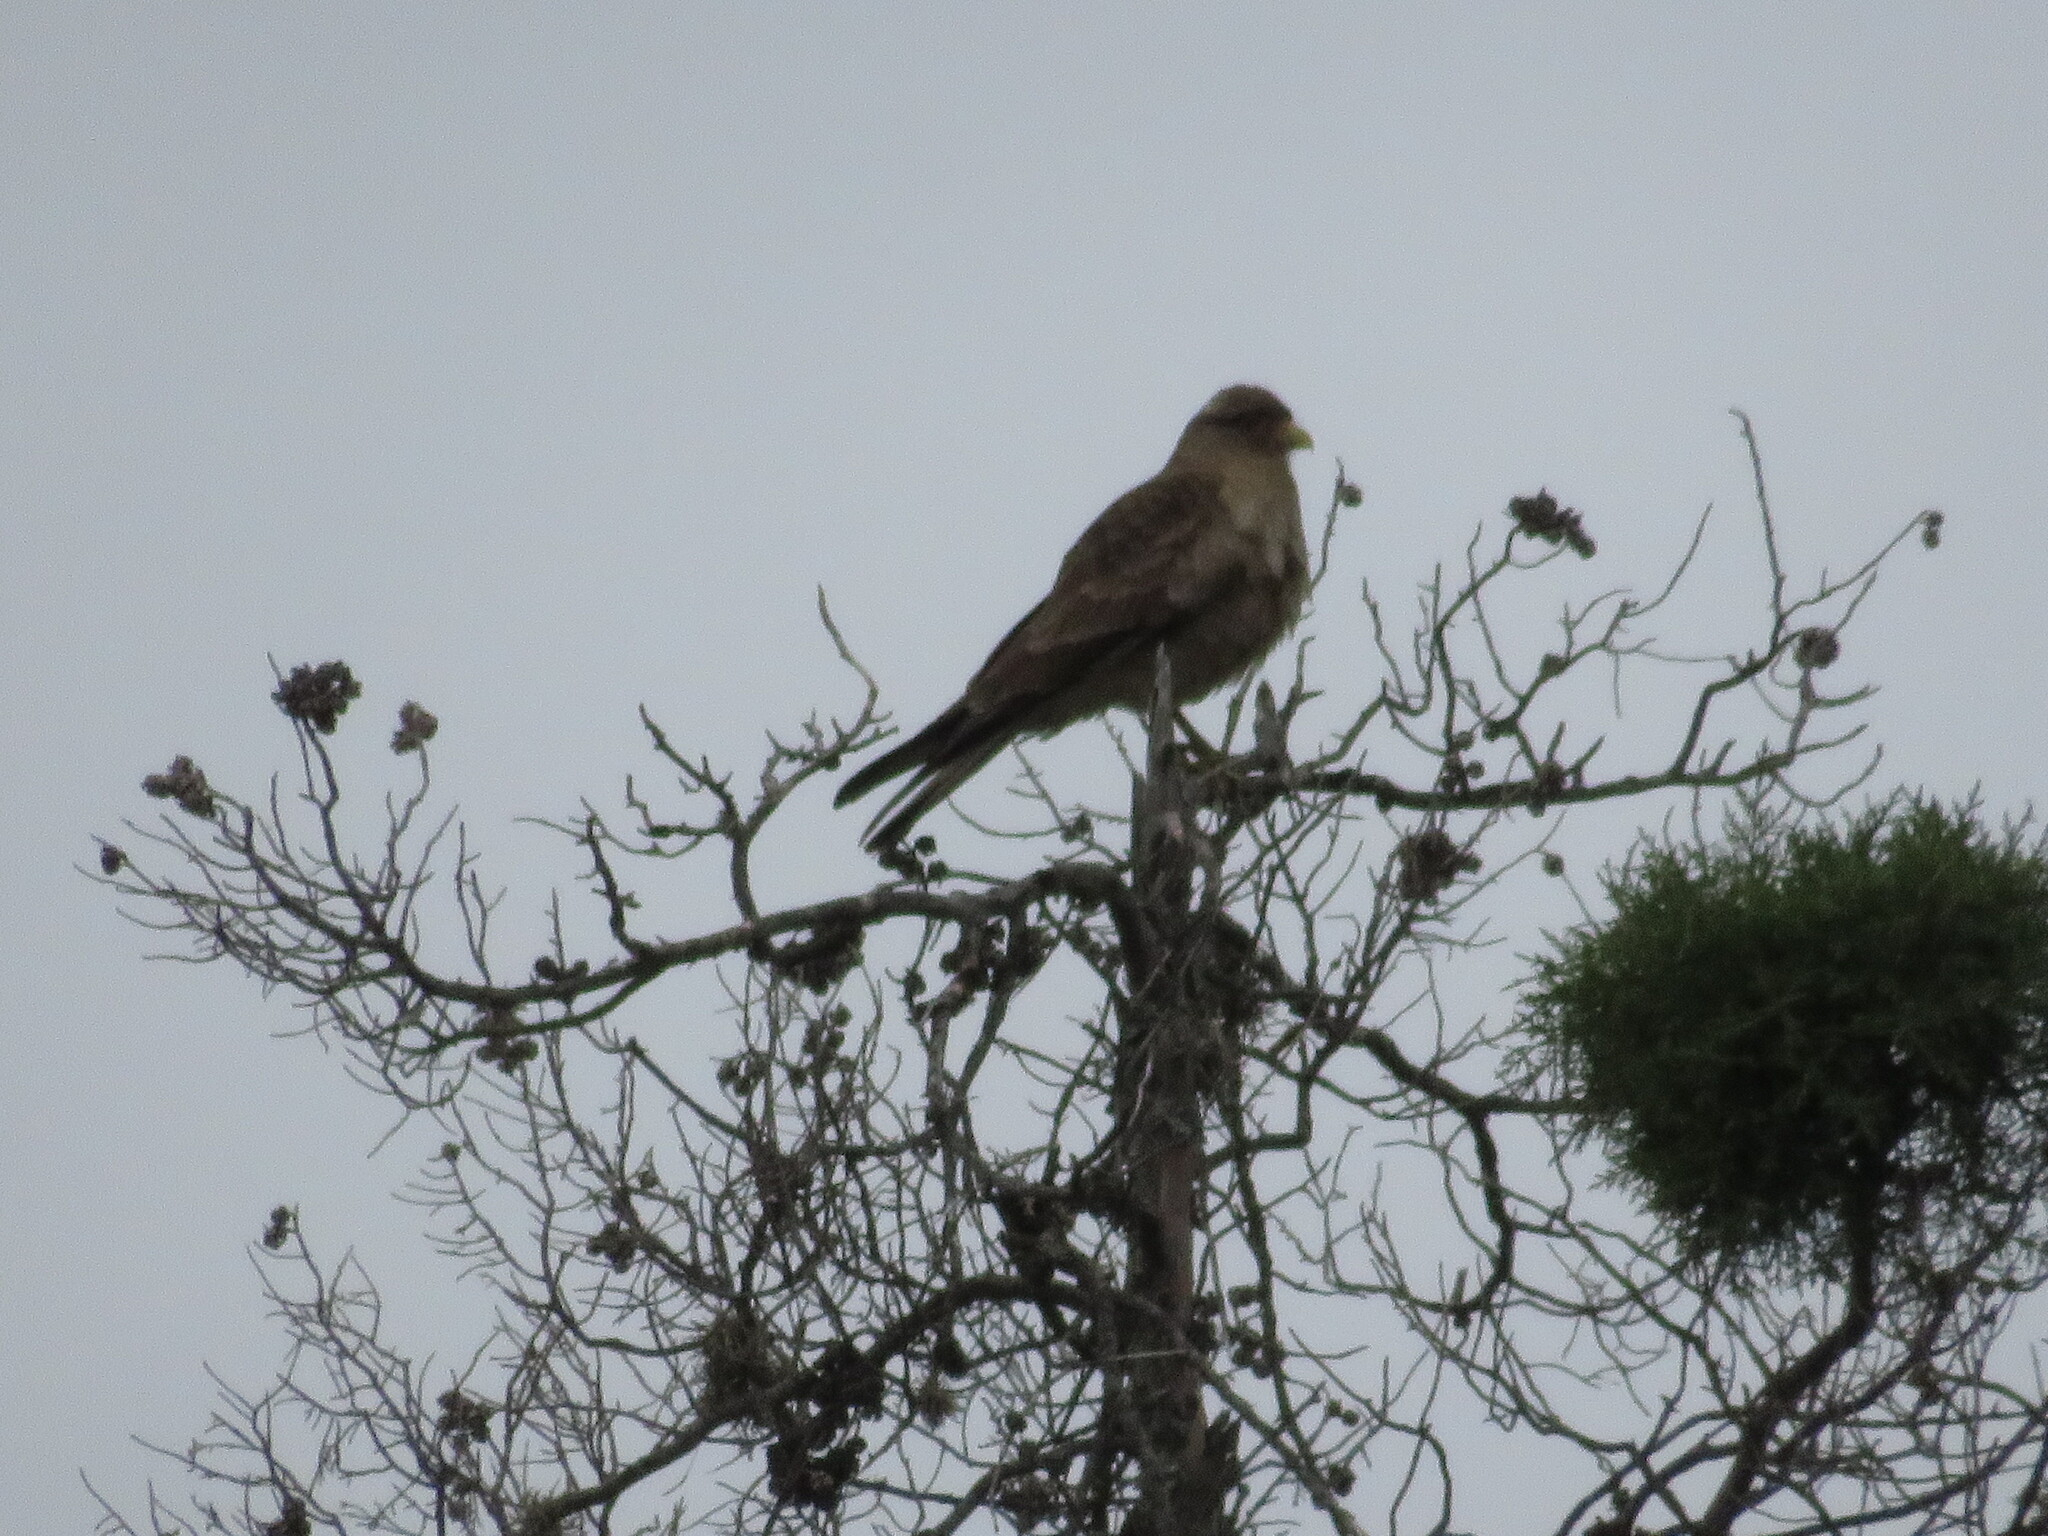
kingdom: Animalia
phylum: Chordata
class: Aves
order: Falconiformes
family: Falconidae
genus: Daptrius
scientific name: Daptrius
